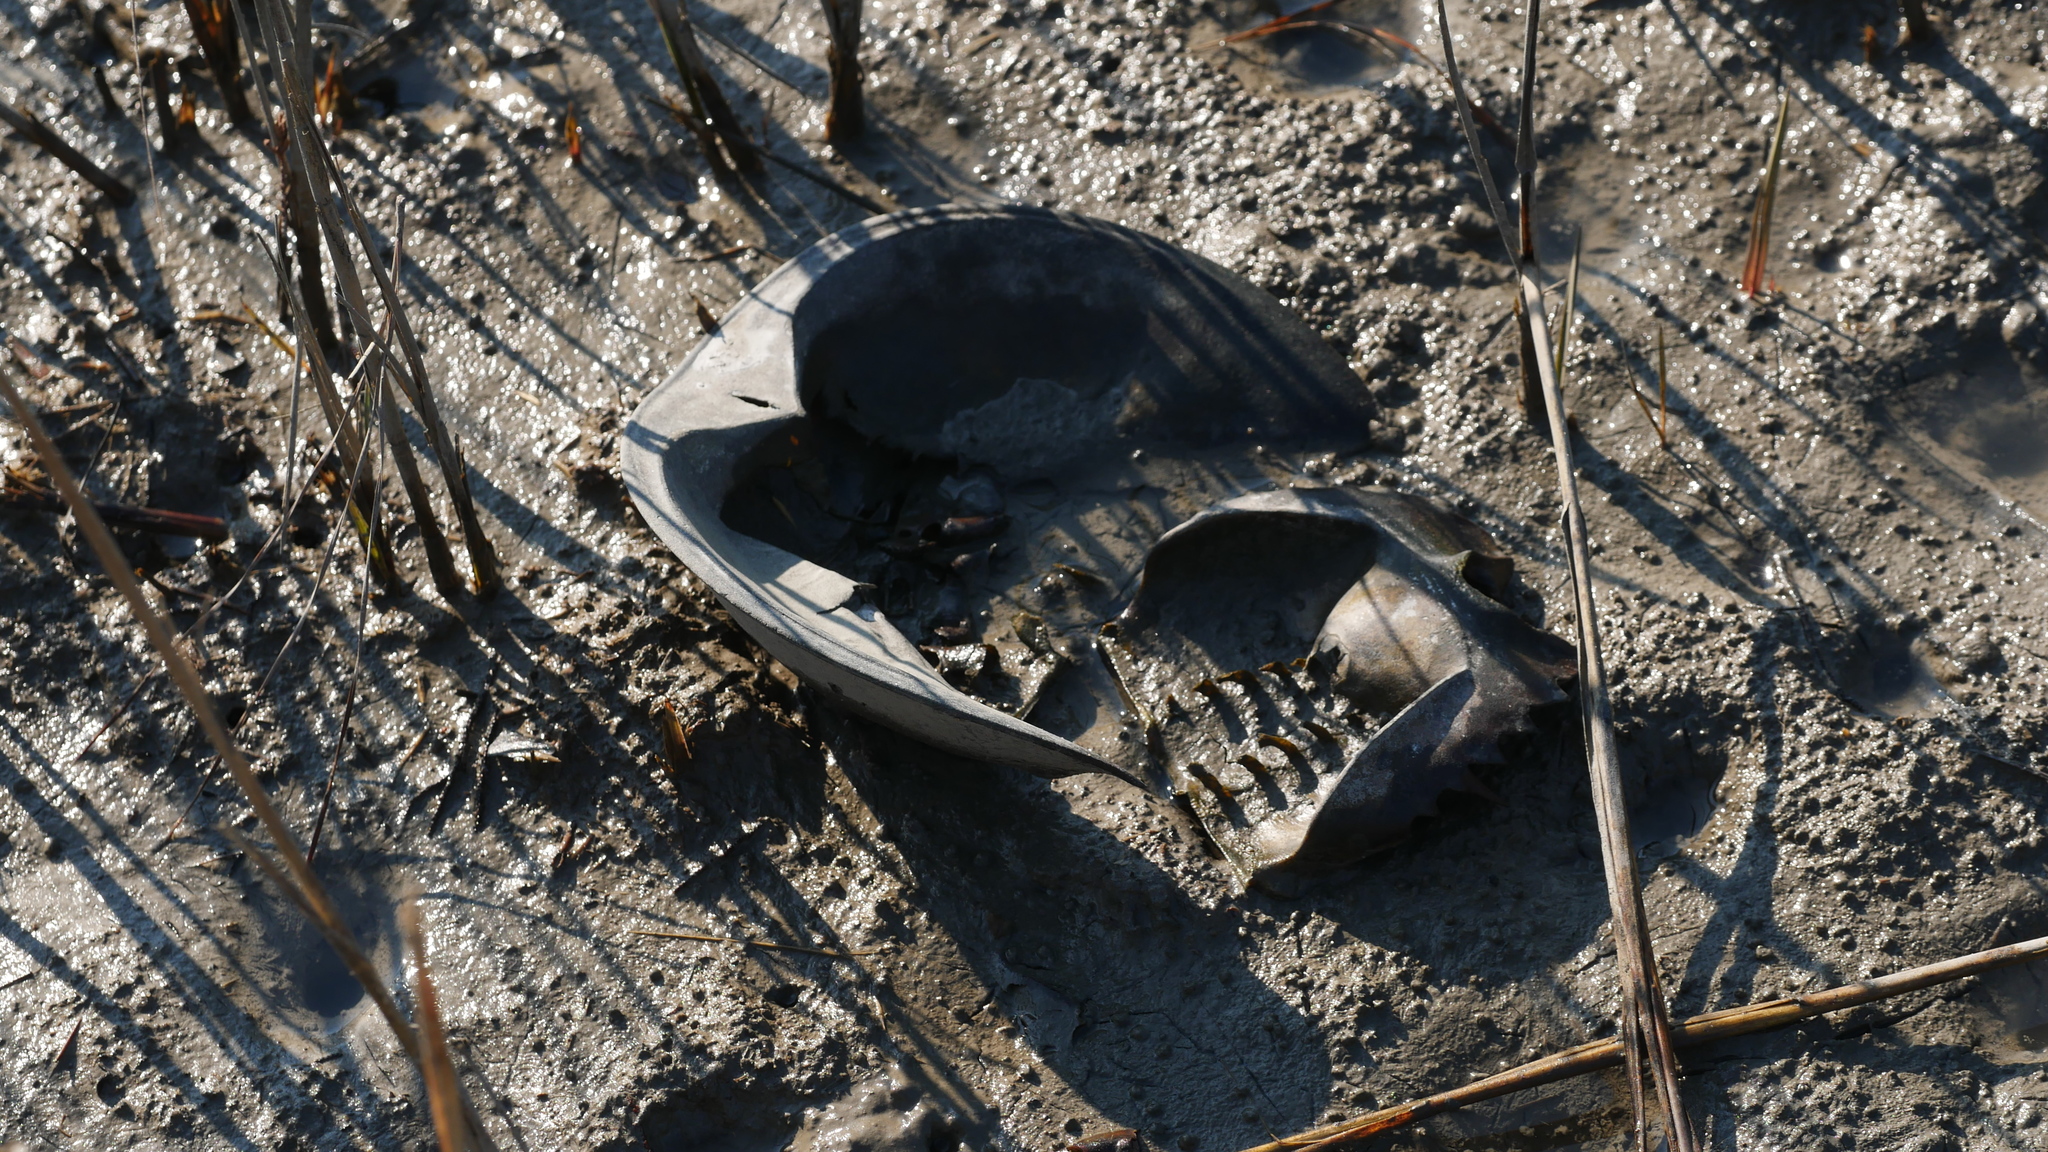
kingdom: Animalia
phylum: Arthropoda
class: Merostomata
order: Xiphosurida
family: Limulidae
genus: Limulus
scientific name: Limulus polyphemus
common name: Horseshoe crab
